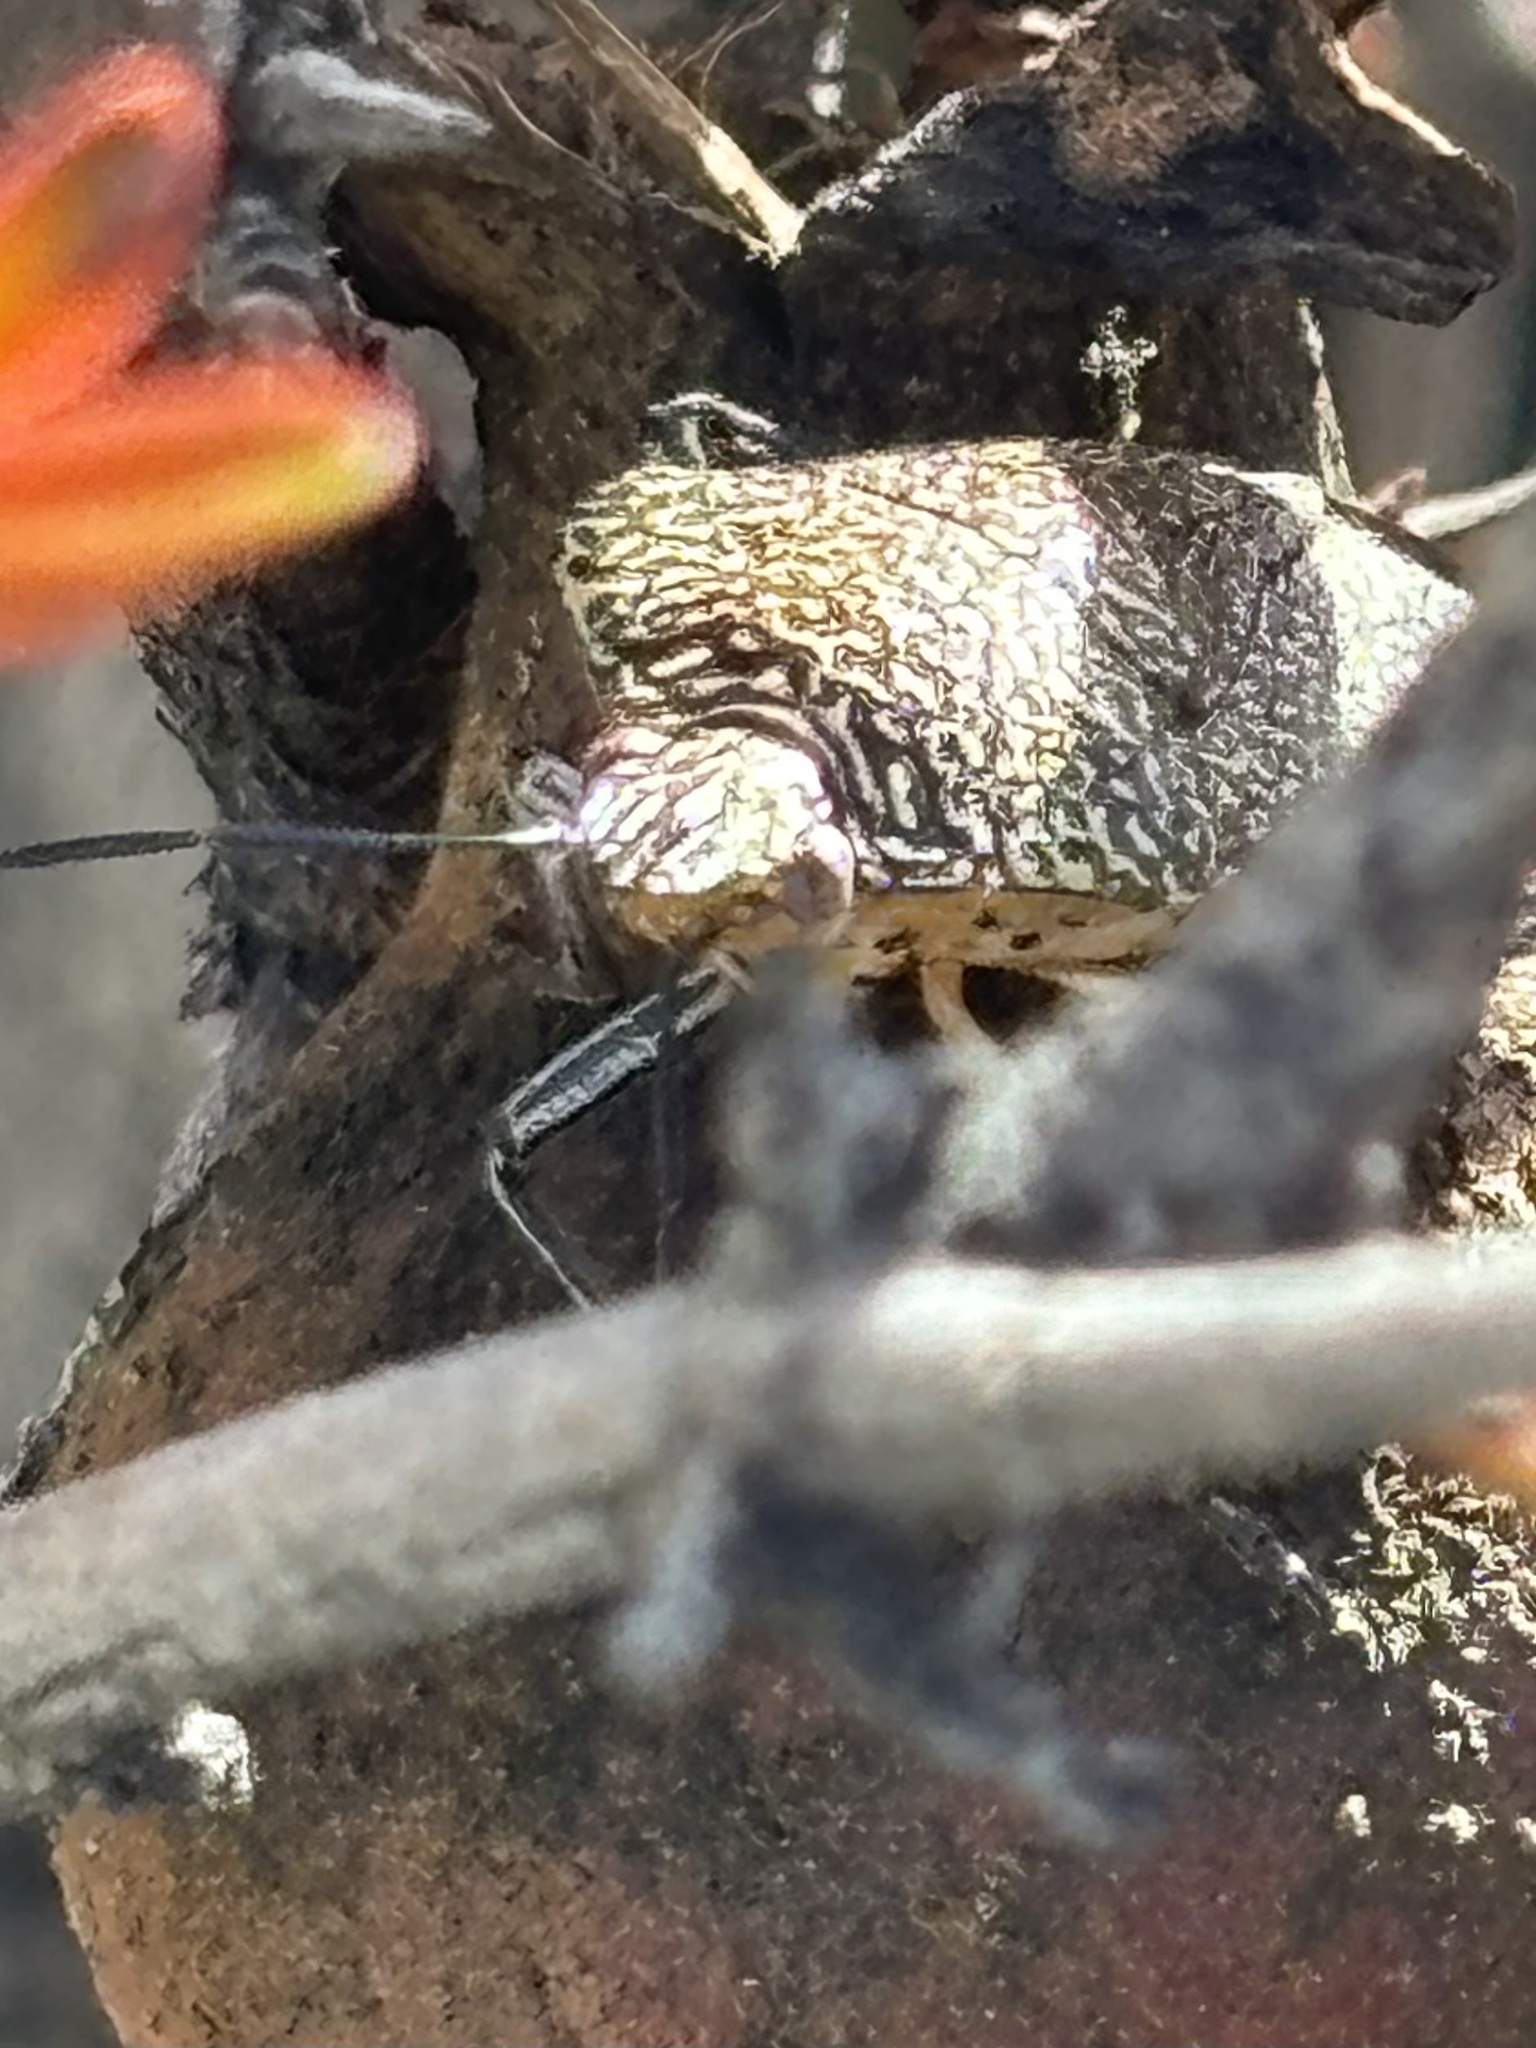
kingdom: Animalia
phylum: Arthropoda
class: Insecta
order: Hemiptera
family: Pentatomidae
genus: Pellaea
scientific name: Pellaea stictica
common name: Stink bug
